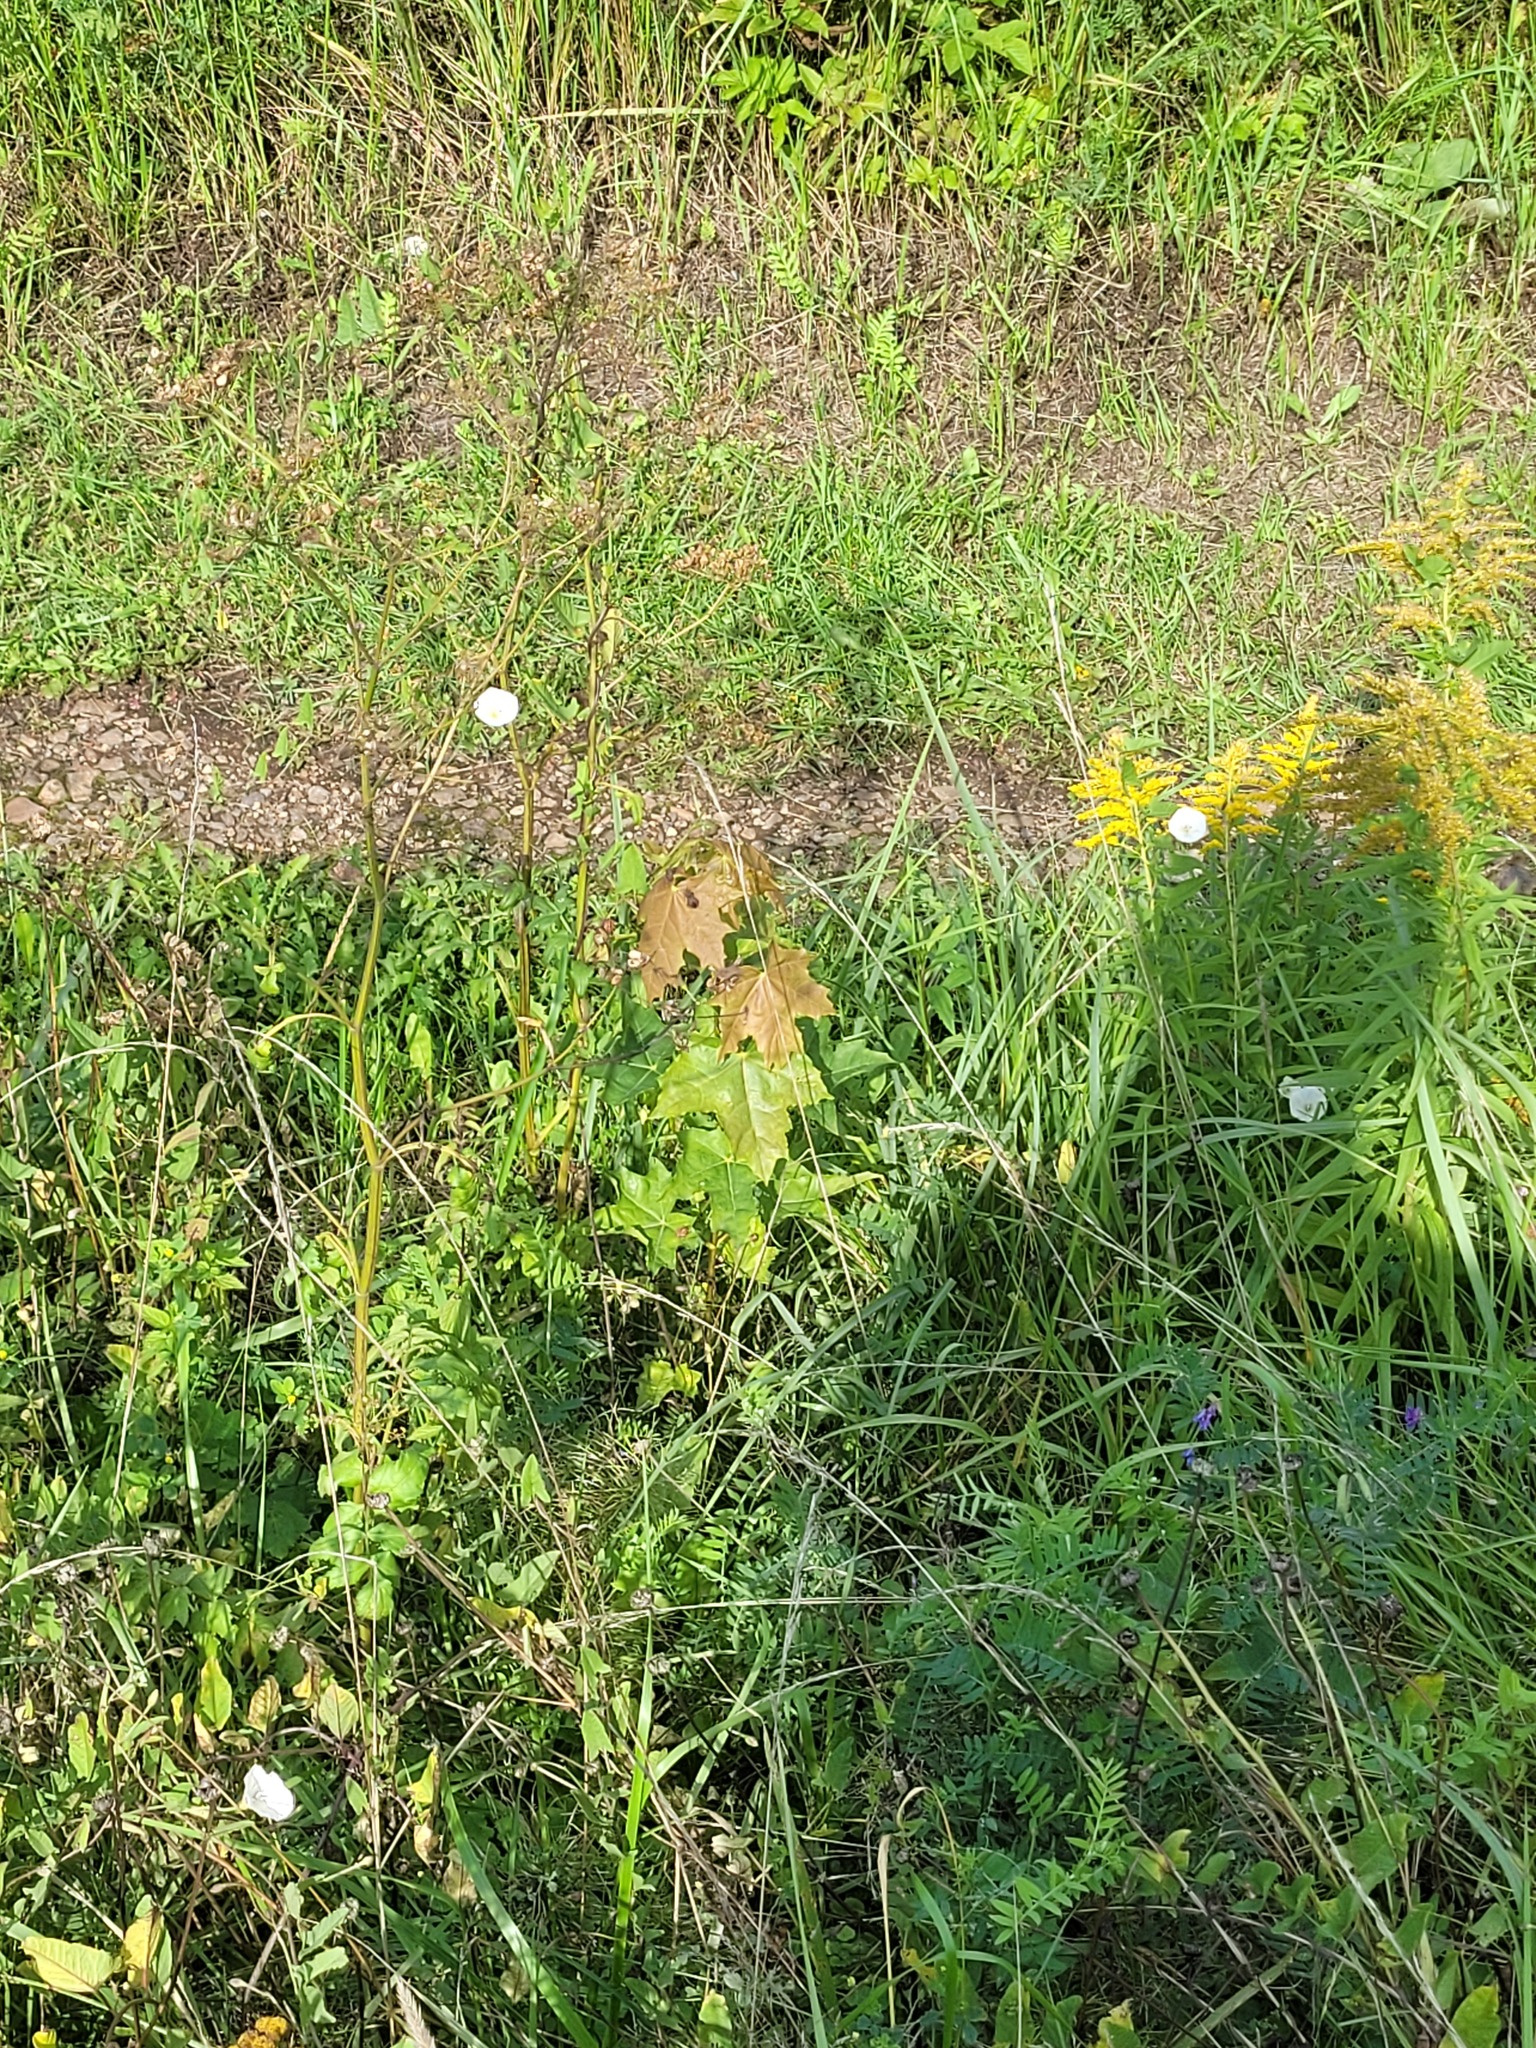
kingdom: Plantae
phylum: Tracheophyta
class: Magnoliopsida
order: Sapindales
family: Sapindaceae
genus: Acer
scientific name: Acer platanoides
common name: Norway maple
